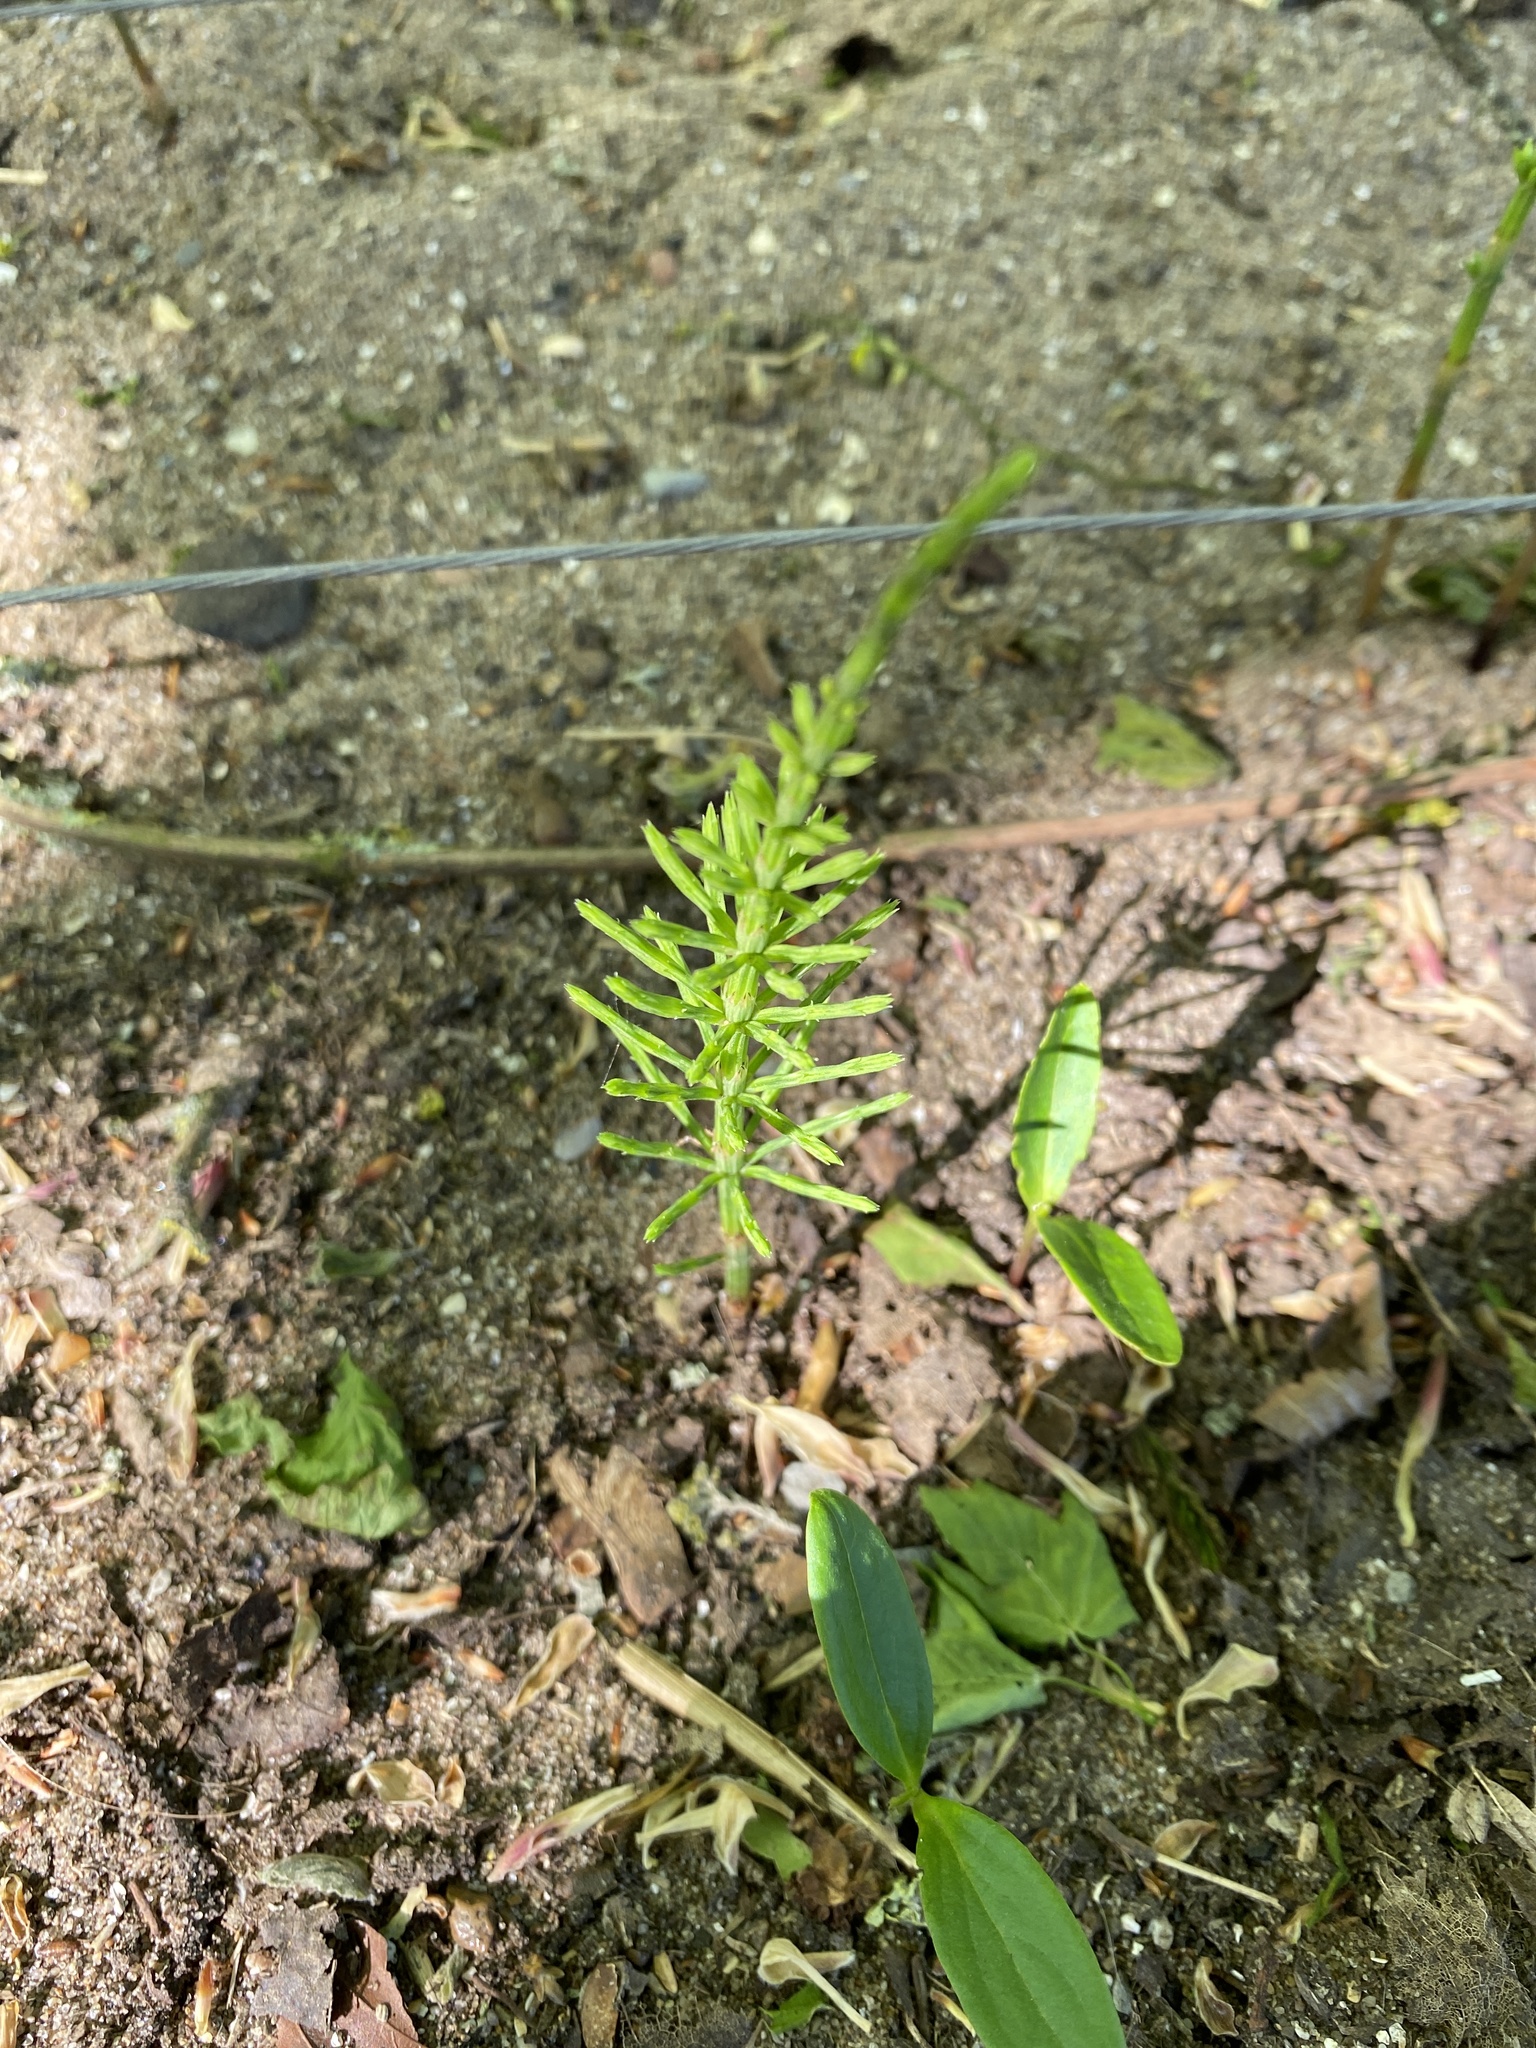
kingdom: Plantae
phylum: Tracheophyta
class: Polypodiopsida
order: Equisetales
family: Equisetaceae
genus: Equisetum
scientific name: Equisetum arvense
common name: Field horsetail
